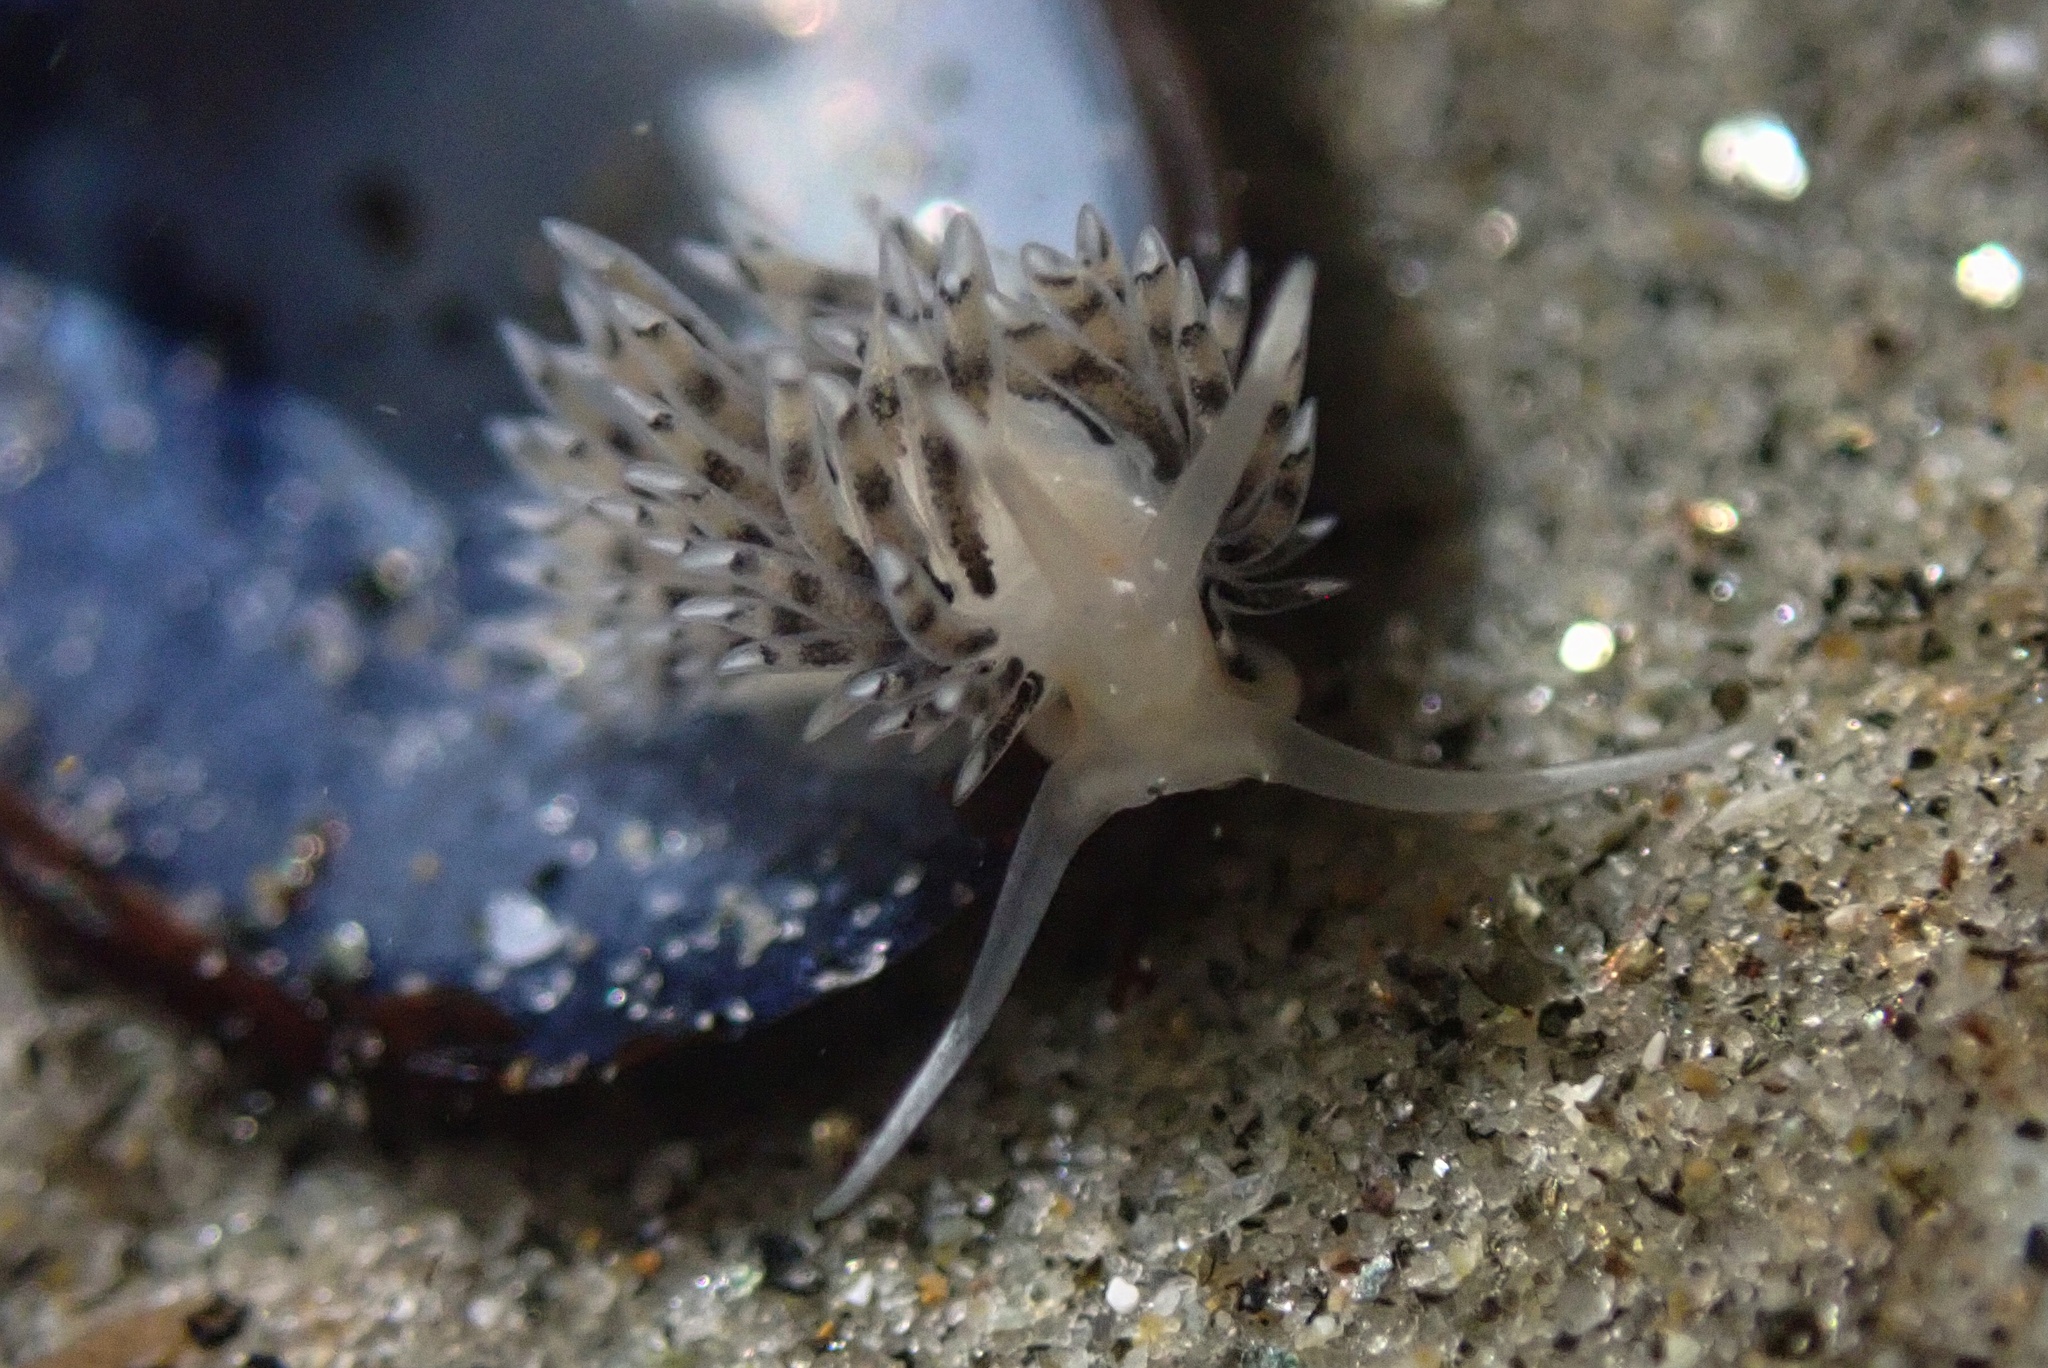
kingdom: Animalia
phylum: Mollusca
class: Gastropoda
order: Nudibranchia
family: Facelinidae
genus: Emarcusia
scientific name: Emarcusia morroensis
